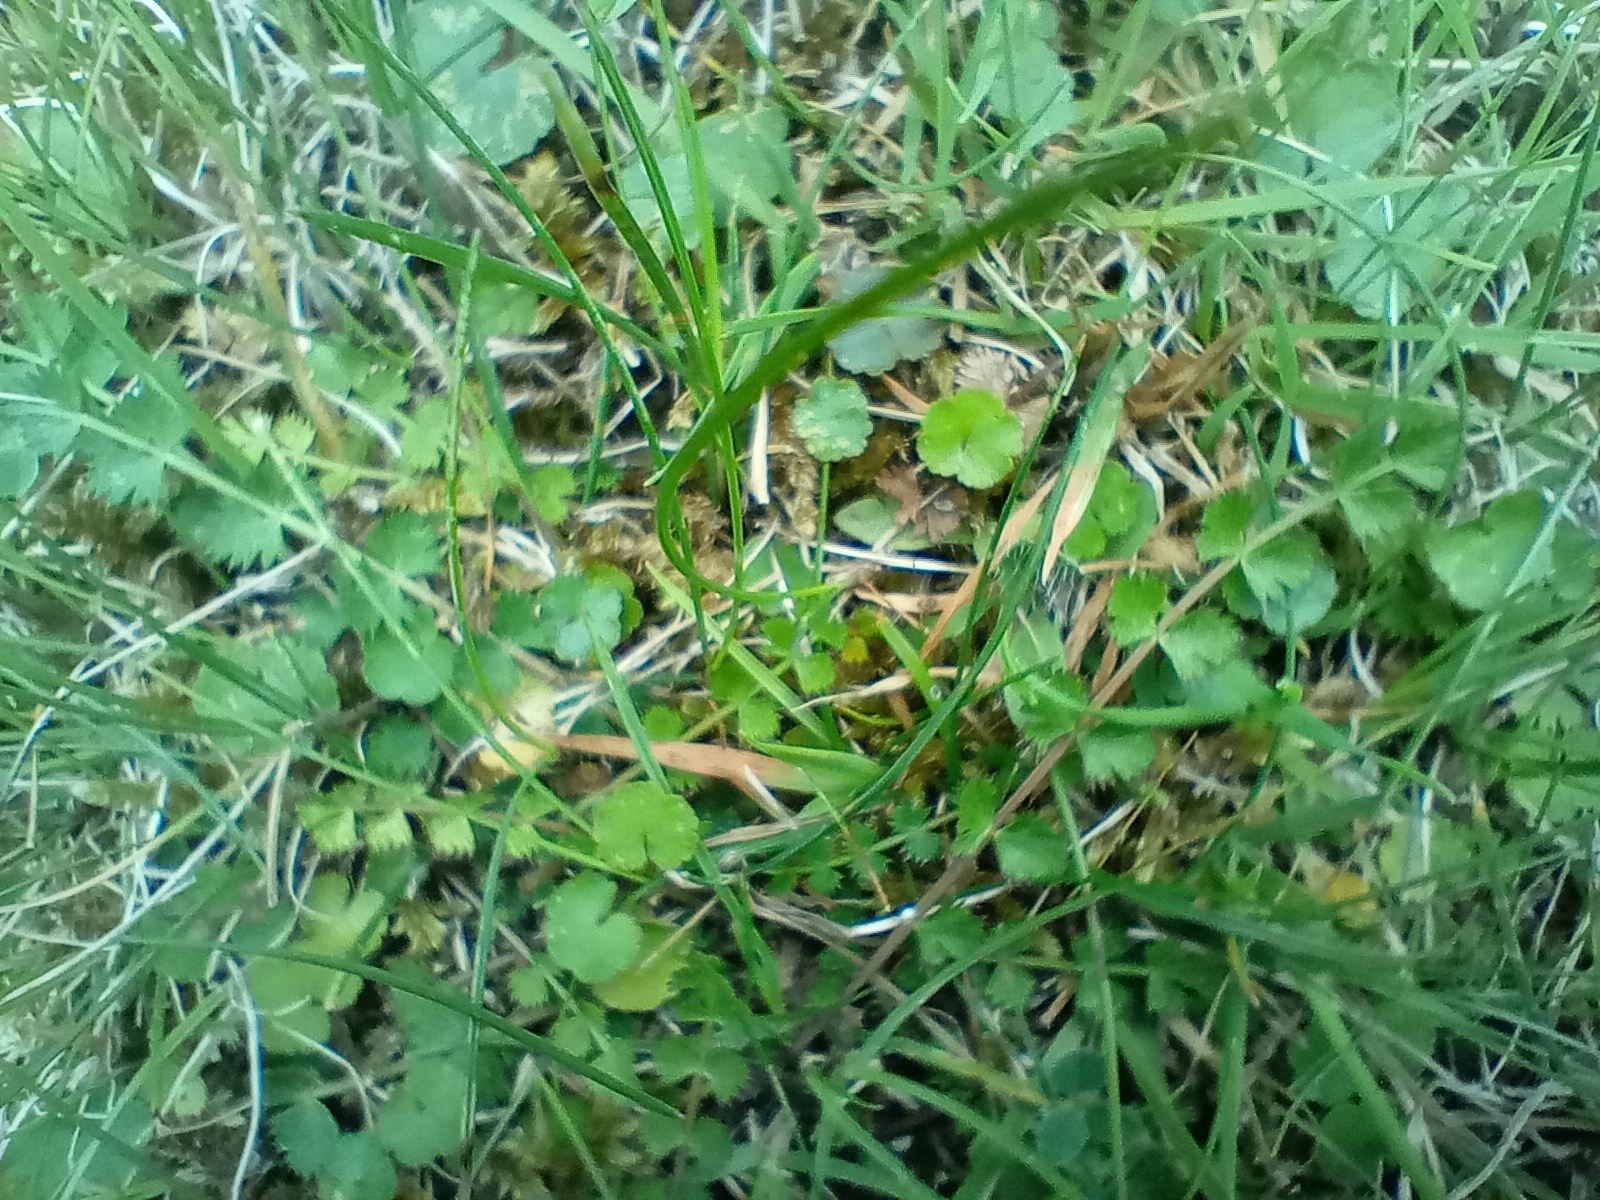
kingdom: Plantae
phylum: Tracheophyta
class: Magnoliopsida
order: Apiales
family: Apiaceae
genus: Anisotome
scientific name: Anisotome aromatica
